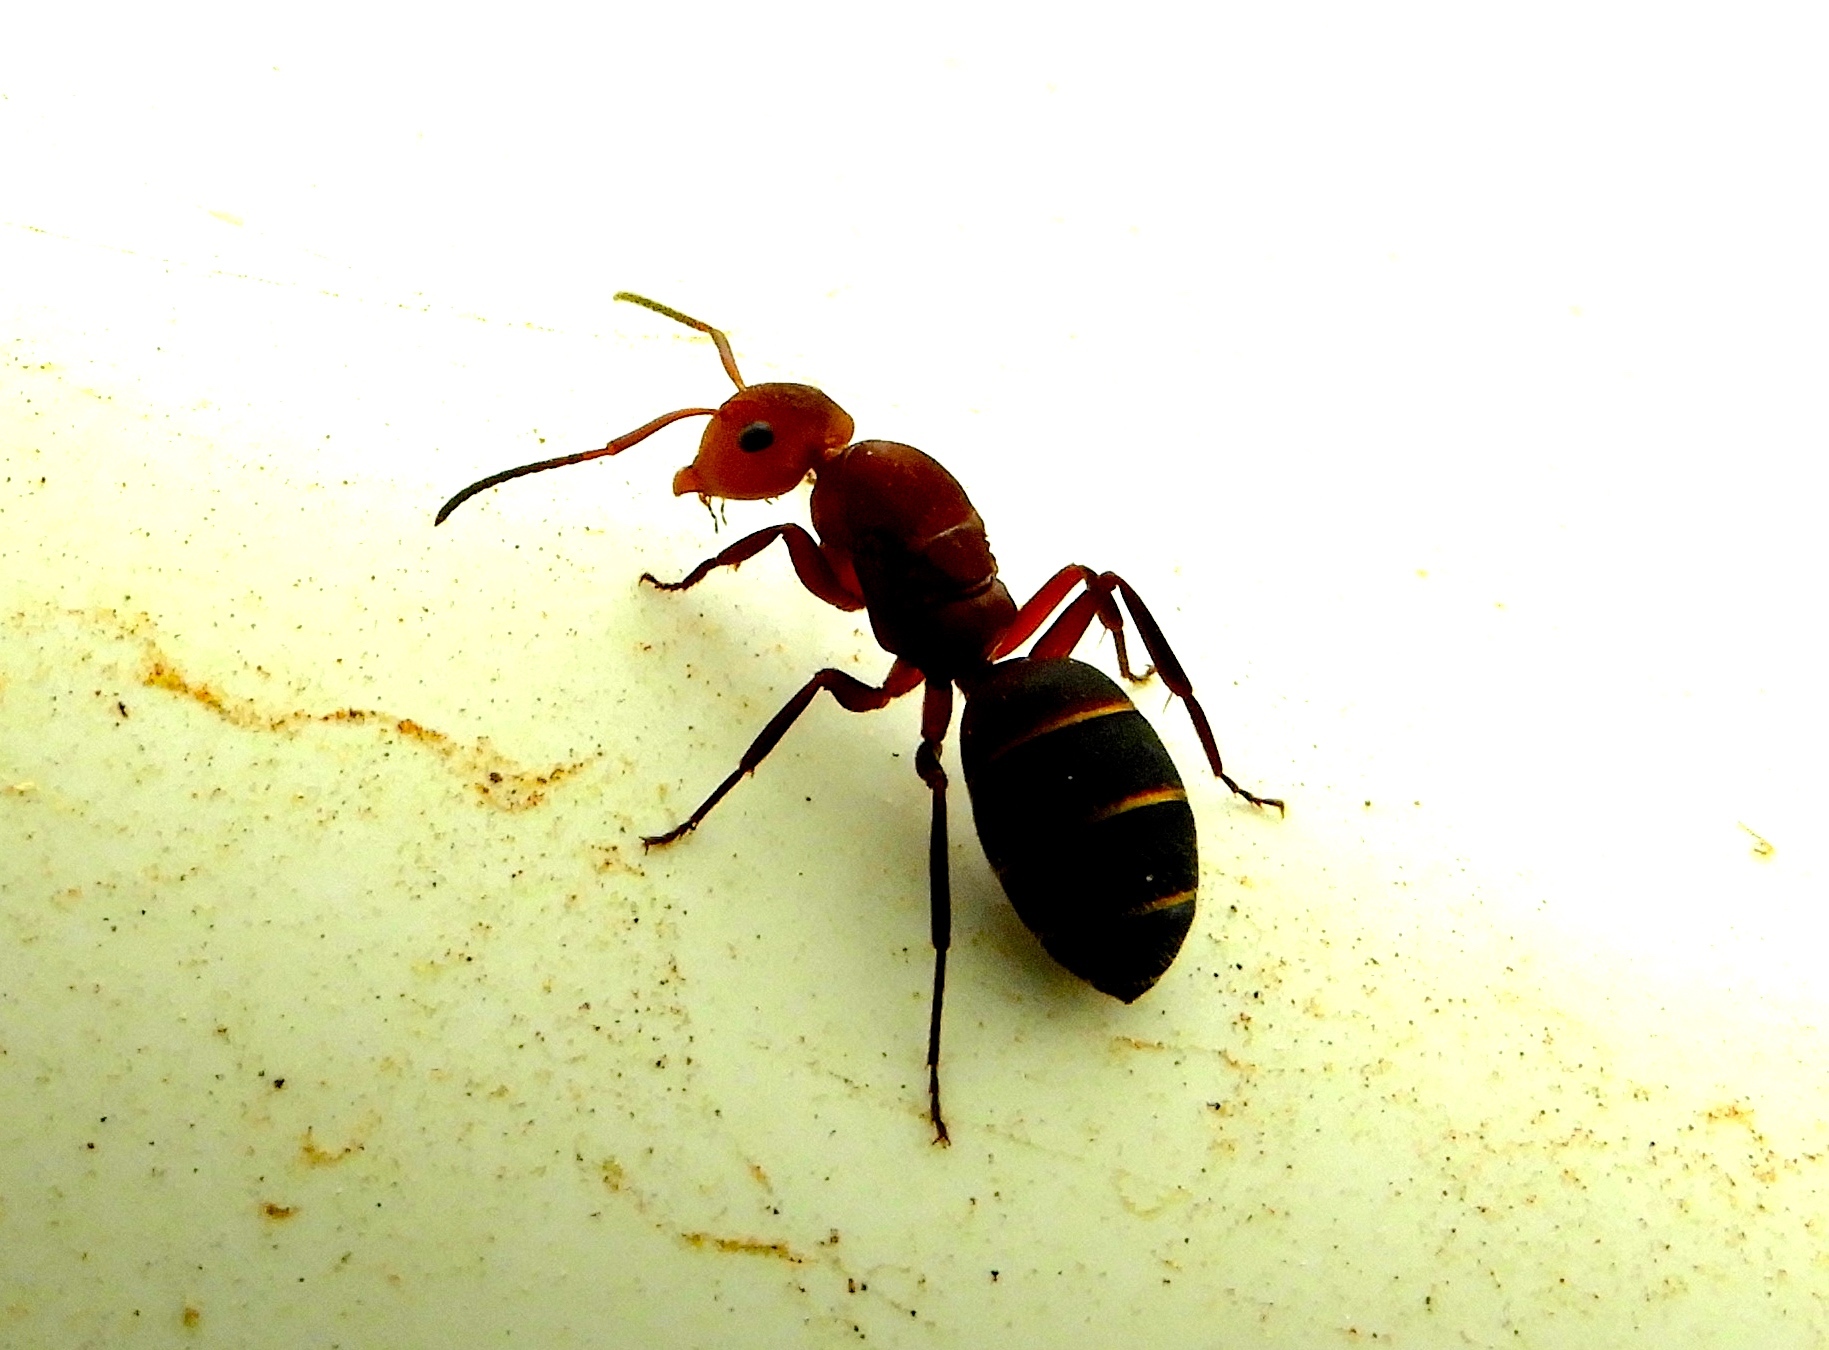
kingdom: Animalia
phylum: Arthropoda
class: Insecta
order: Hymenoptera
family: Formicidae
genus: Camponotus
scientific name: Camponotus rectangularis
